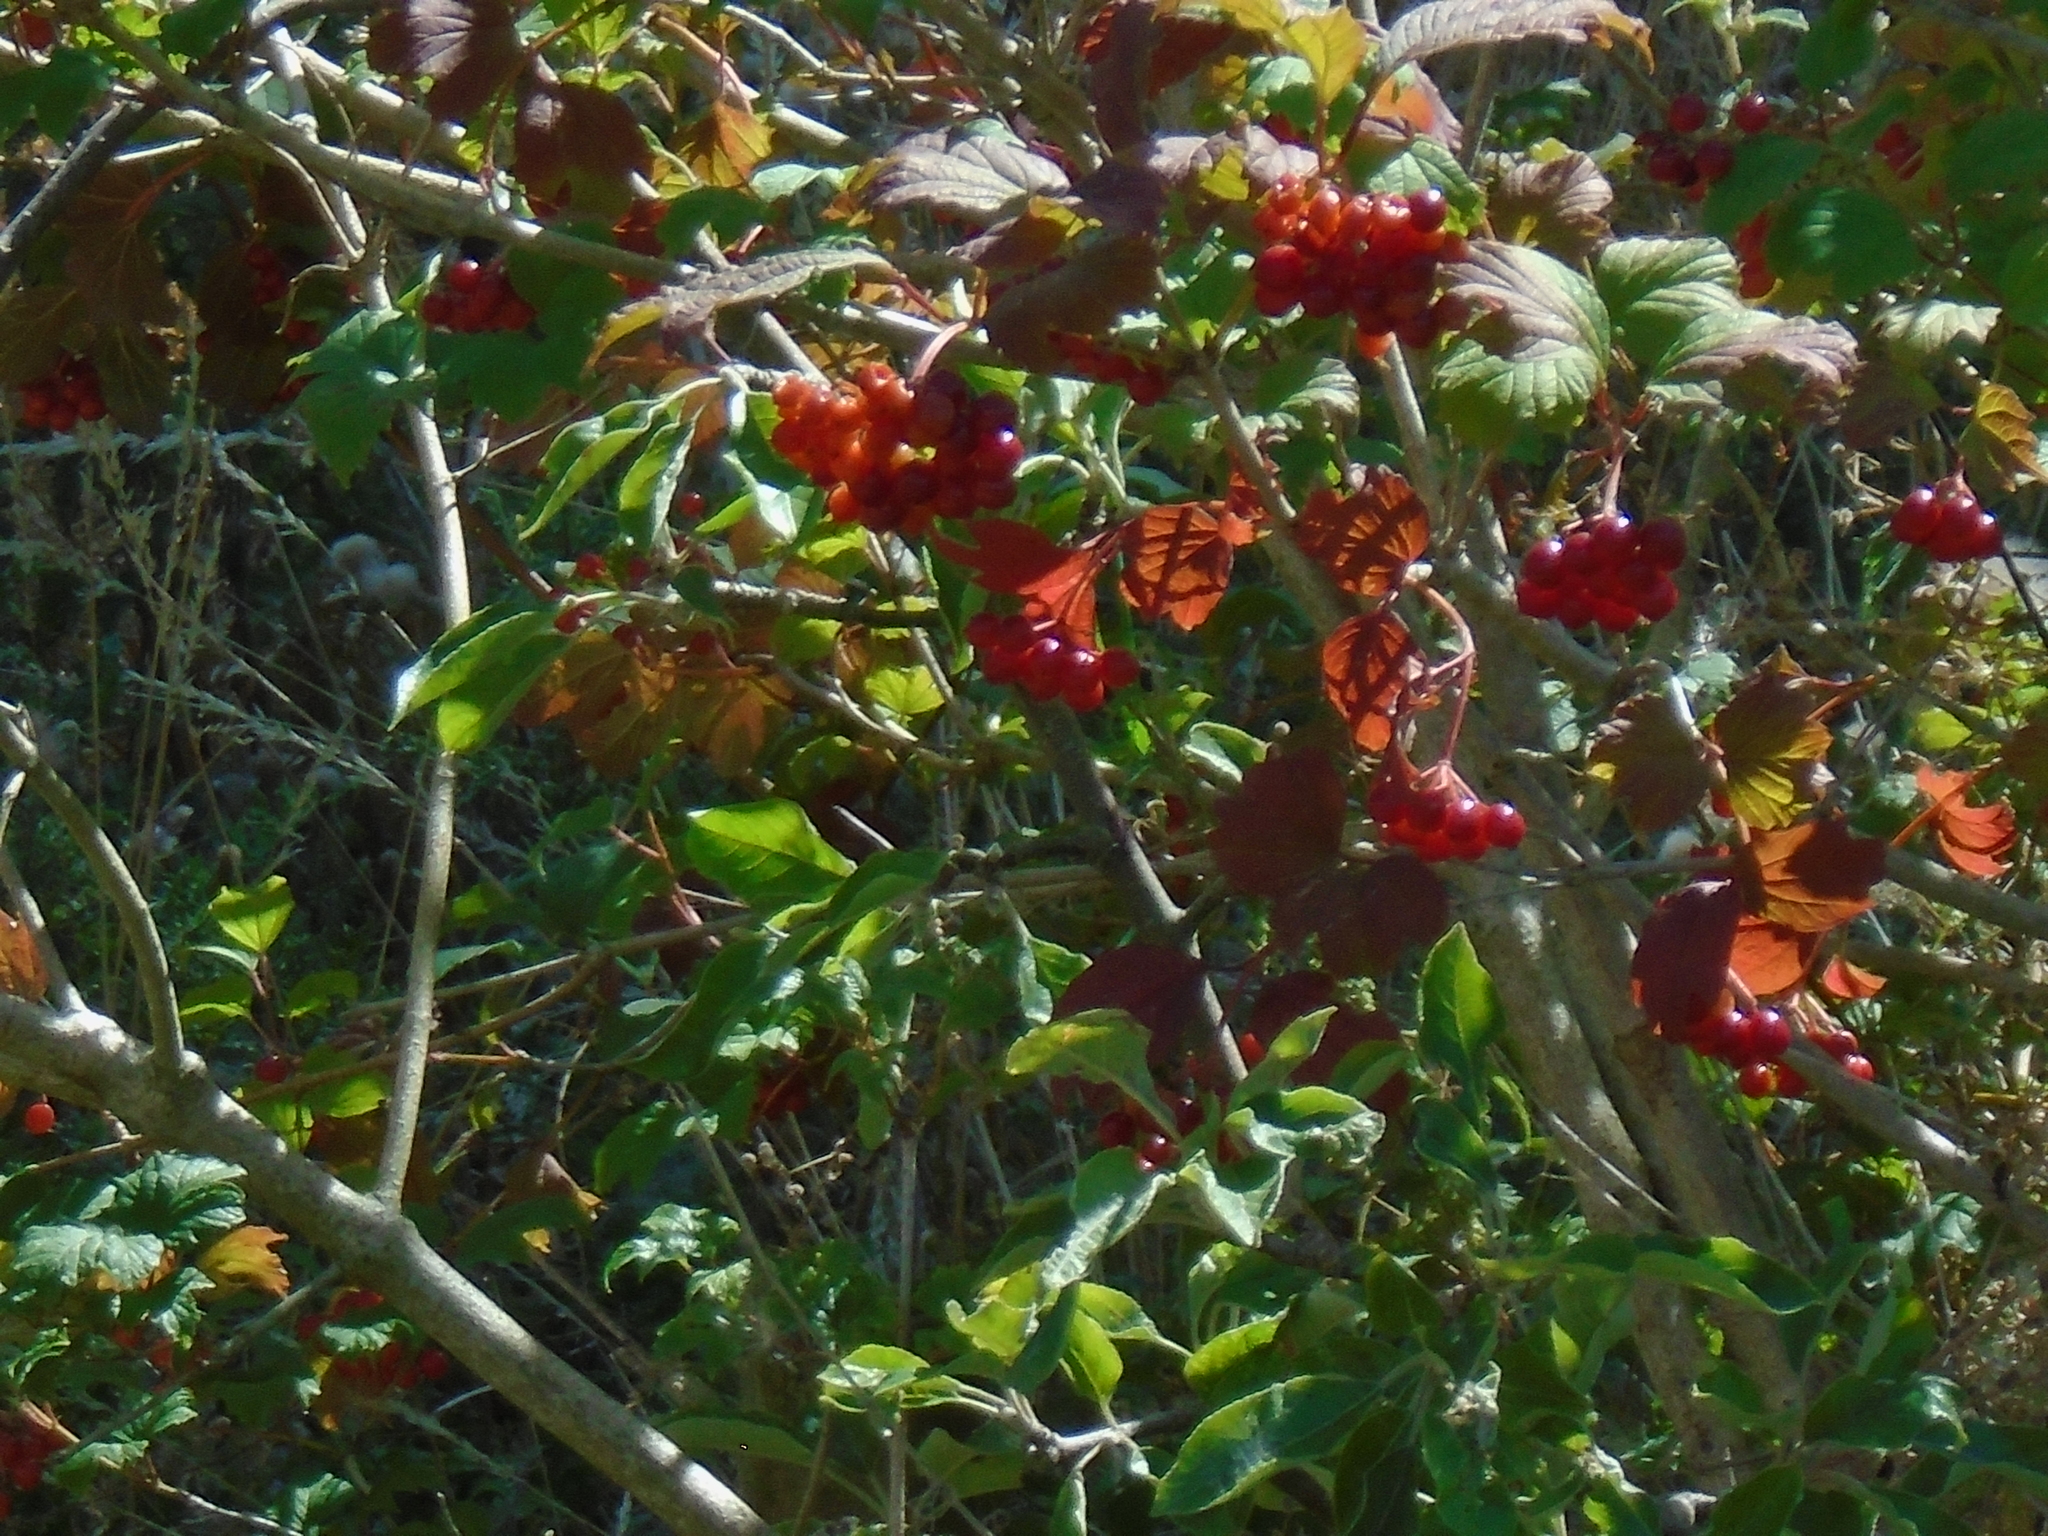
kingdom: Plantae
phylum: Tracheophyta
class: Magnoliopsida
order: Dipsacales
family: Viburnaceae
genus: Viburnum
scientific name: Viburnum opulus
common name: Guelder-rose
